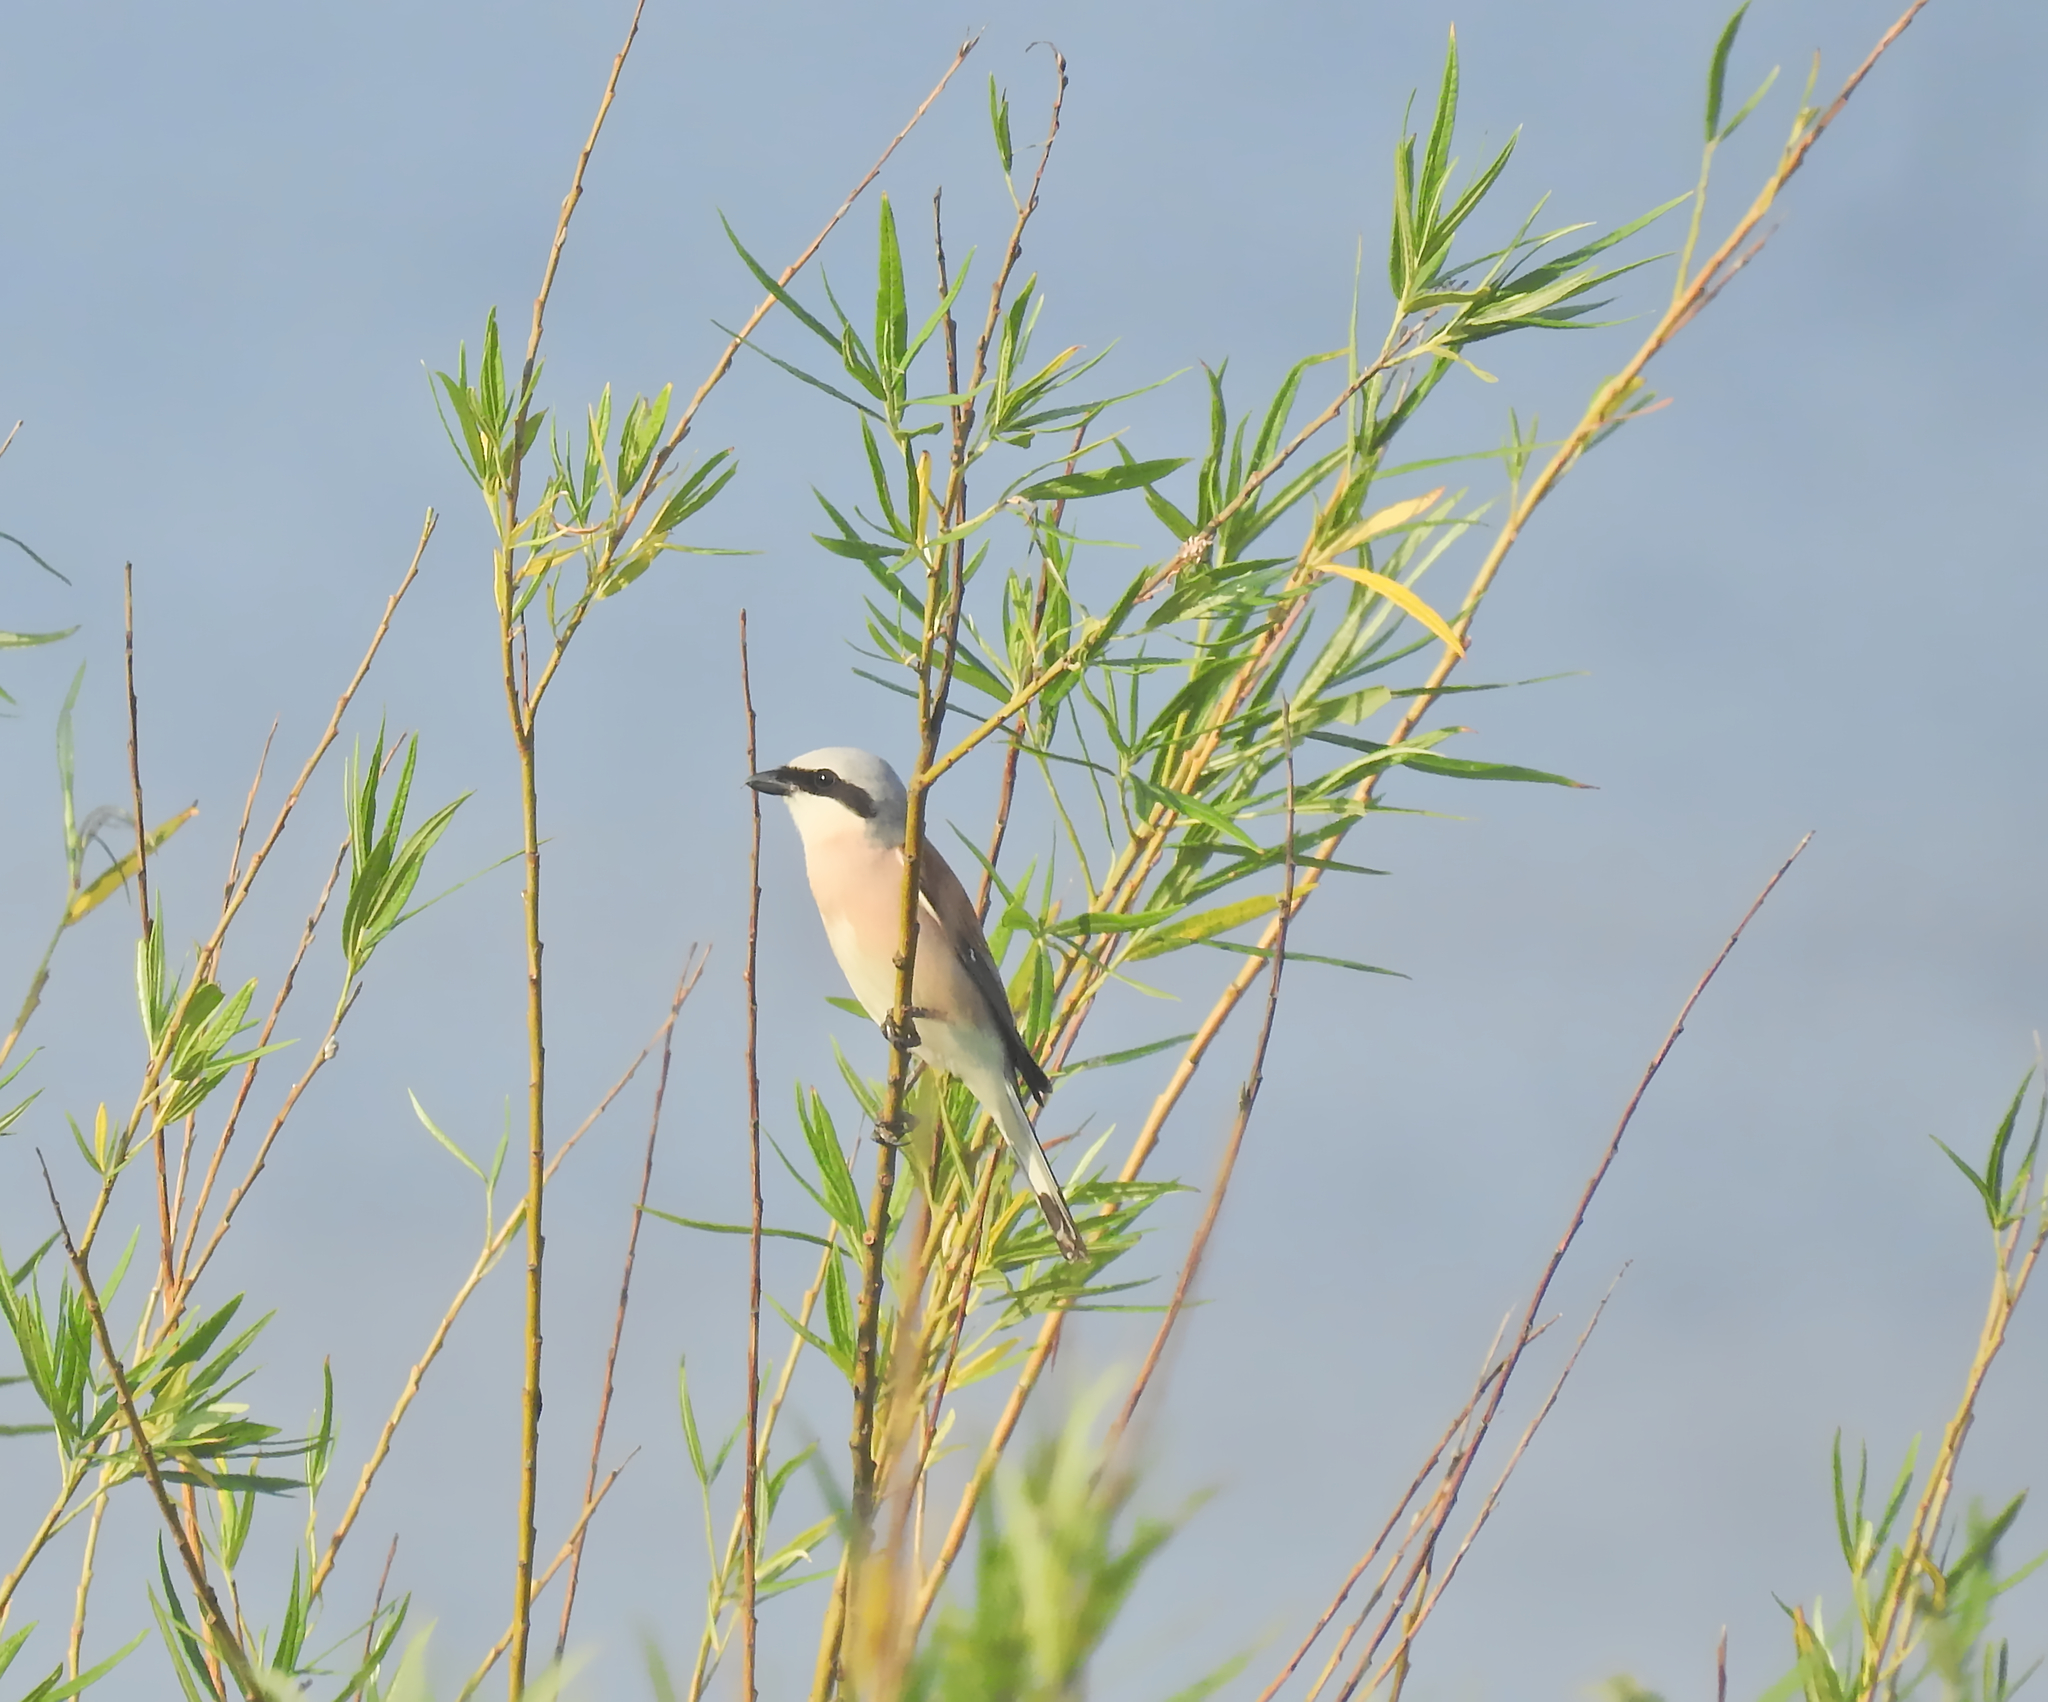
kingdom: Animalia
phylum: Chordata
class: Aves
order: Passeriformes
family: Laniidae
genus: Lanius
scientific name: Lanius collurio
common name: Red-backed shrike
